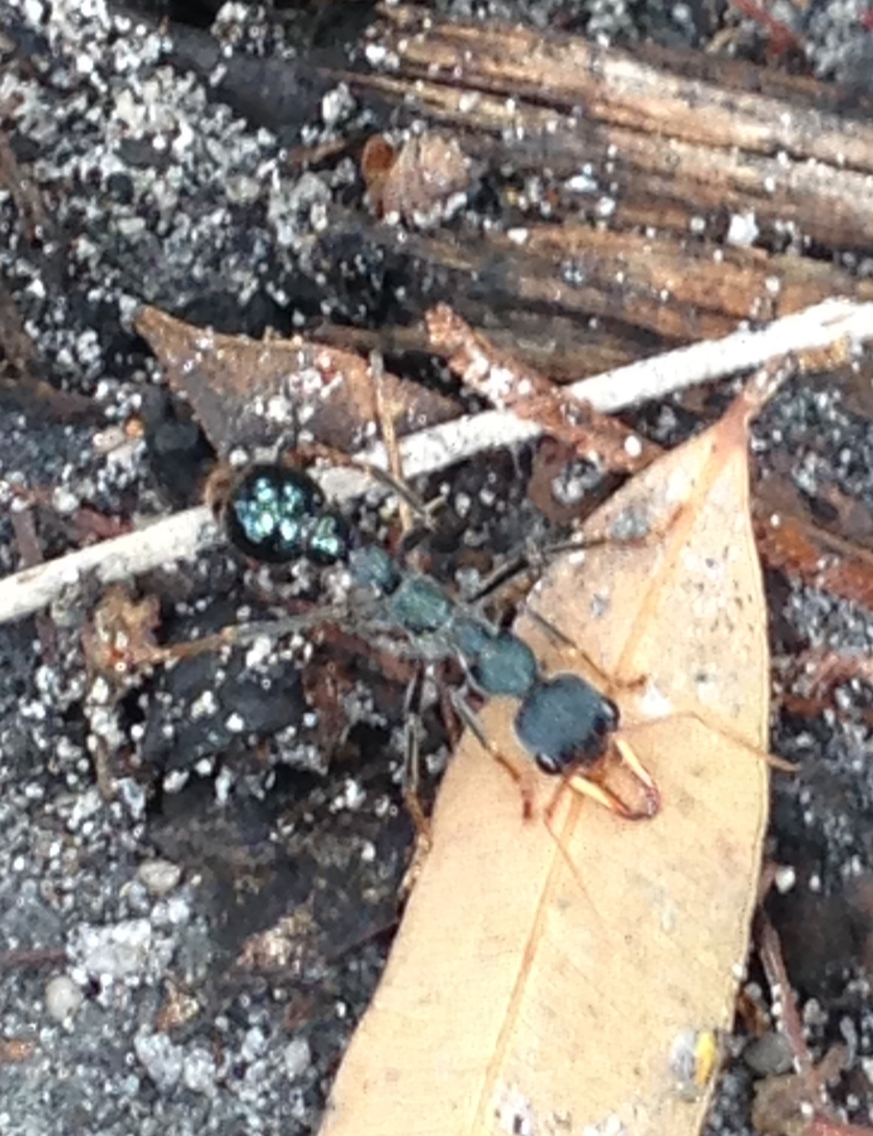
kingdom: Animalia
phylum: Arthropoda
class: Insecta
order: Hymenoptera
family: Formicidae
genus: Myrmecia
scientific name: Myrmecia tarsata
